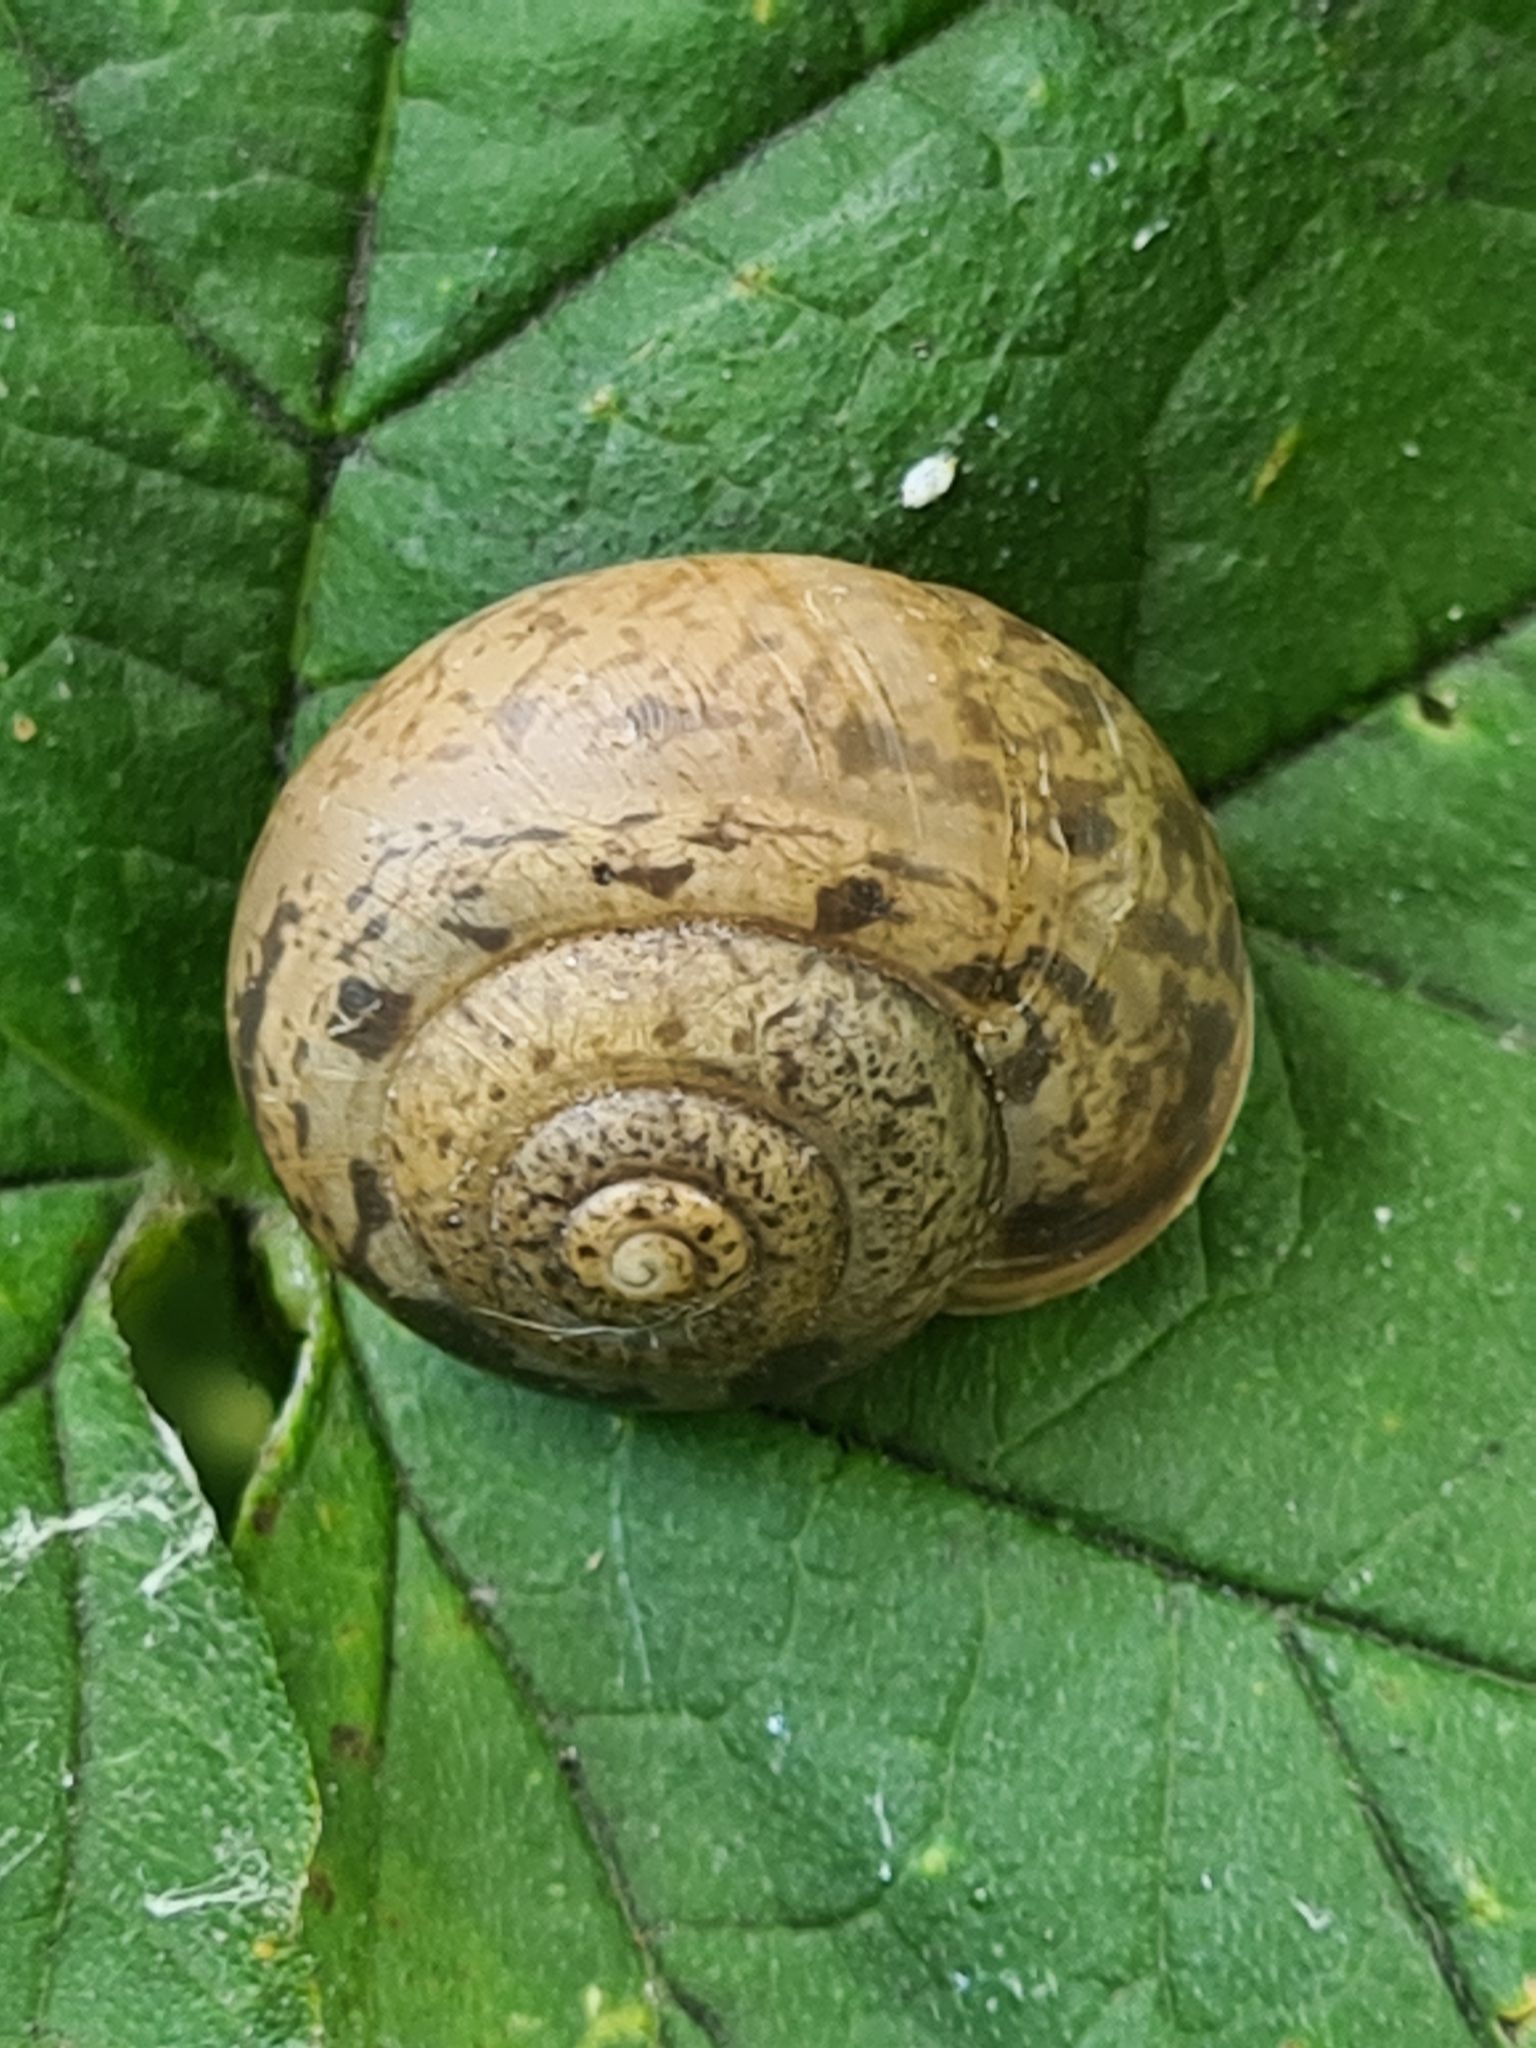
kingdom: Animalia
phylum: Mollusca
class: Gastropoda
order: Stylommatophora
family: Camaenidae
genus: Fruticicola
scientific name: Fruticicola fruticum
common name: Bush snail
